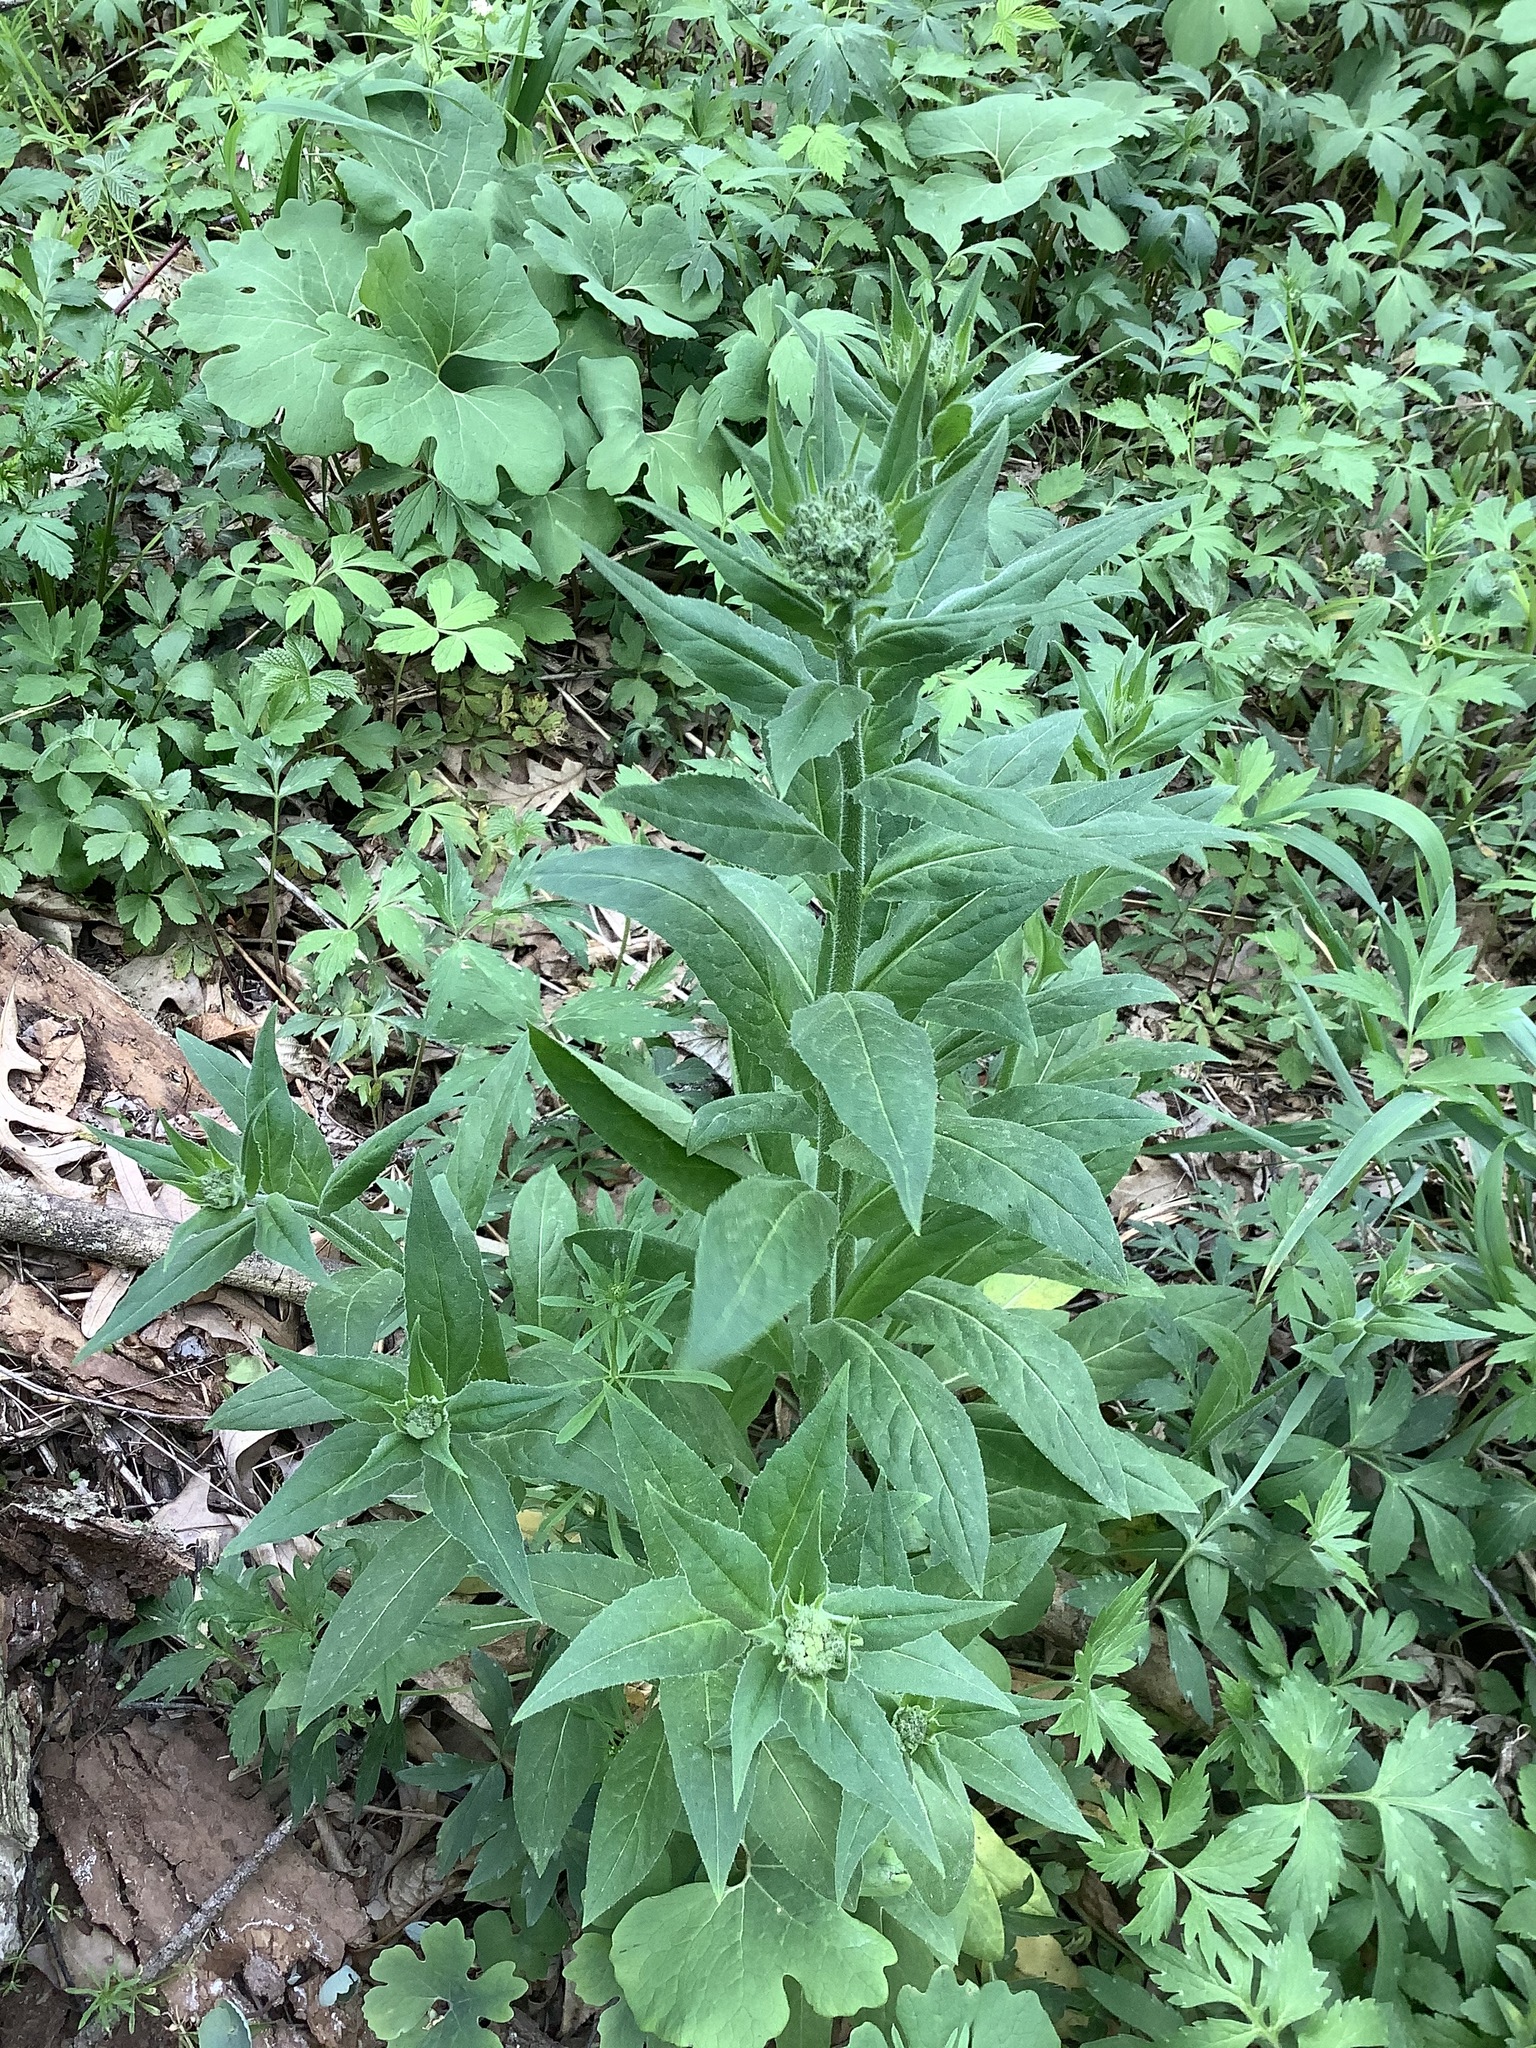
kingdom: Plantae
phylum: Tracheophyta
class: Magnoliopsida
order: Brassicales
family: Brassicaceae
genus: Hesperis
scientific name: Hesperis matronalis
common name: Dame's-violet
